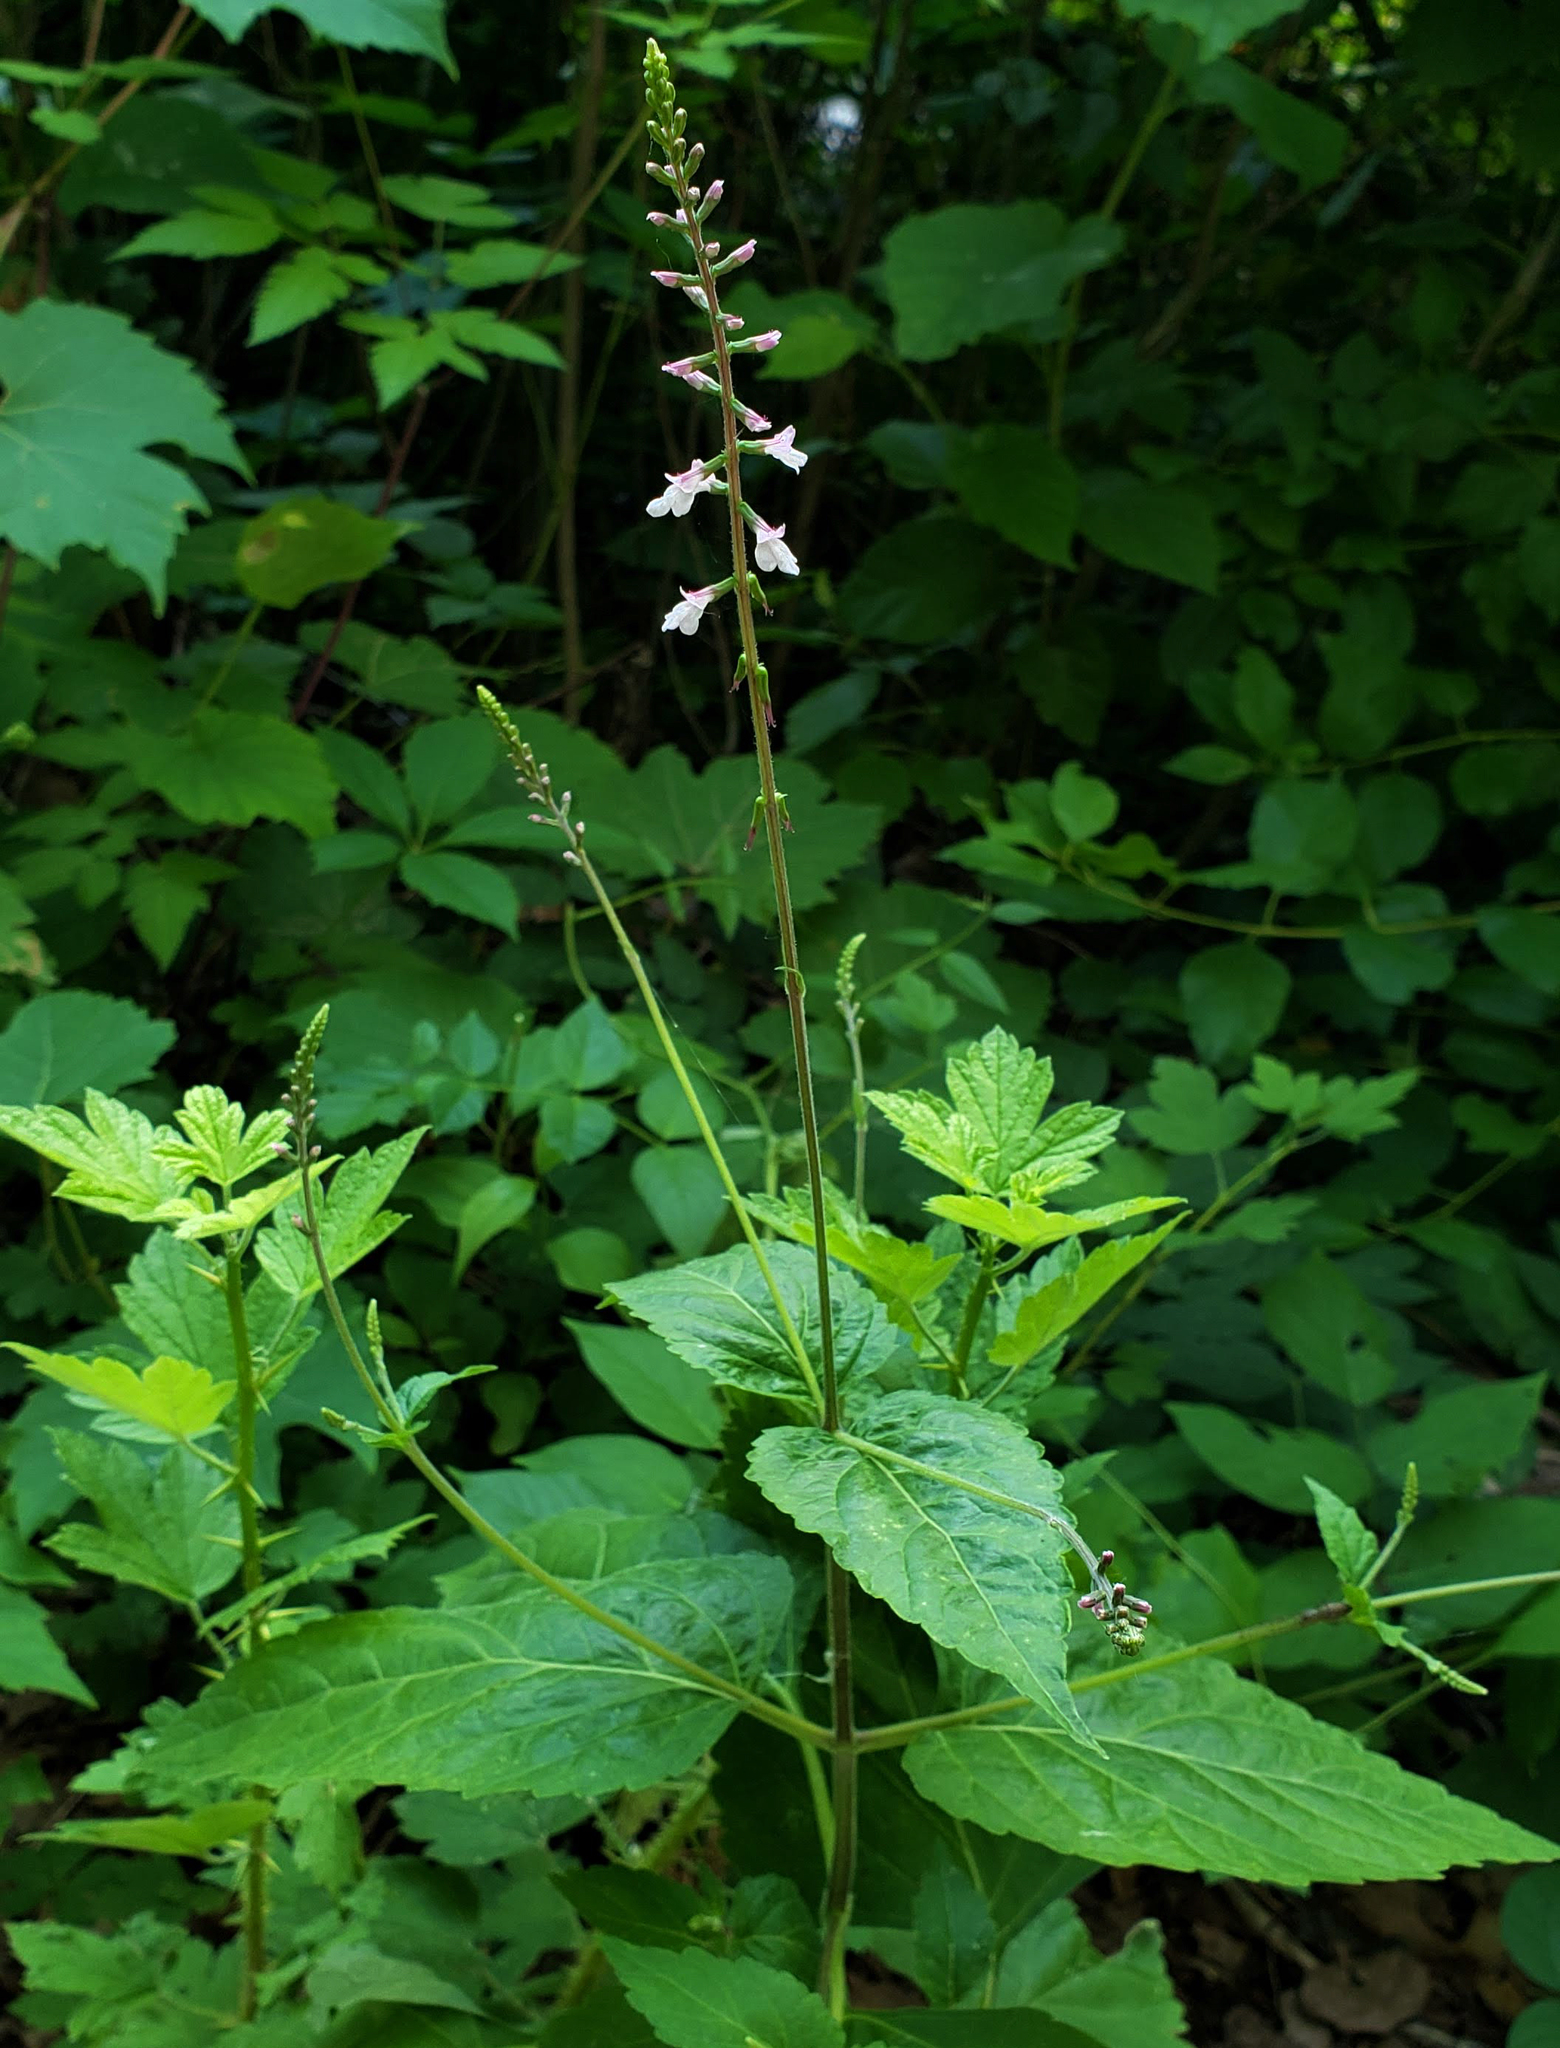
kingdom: Plantae
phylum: Tracheophyta
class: Magnoliopsida
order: Lamiales
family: Phrymaceae
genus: Phryma
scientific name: Phryma leptostachya
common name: American lopseed
